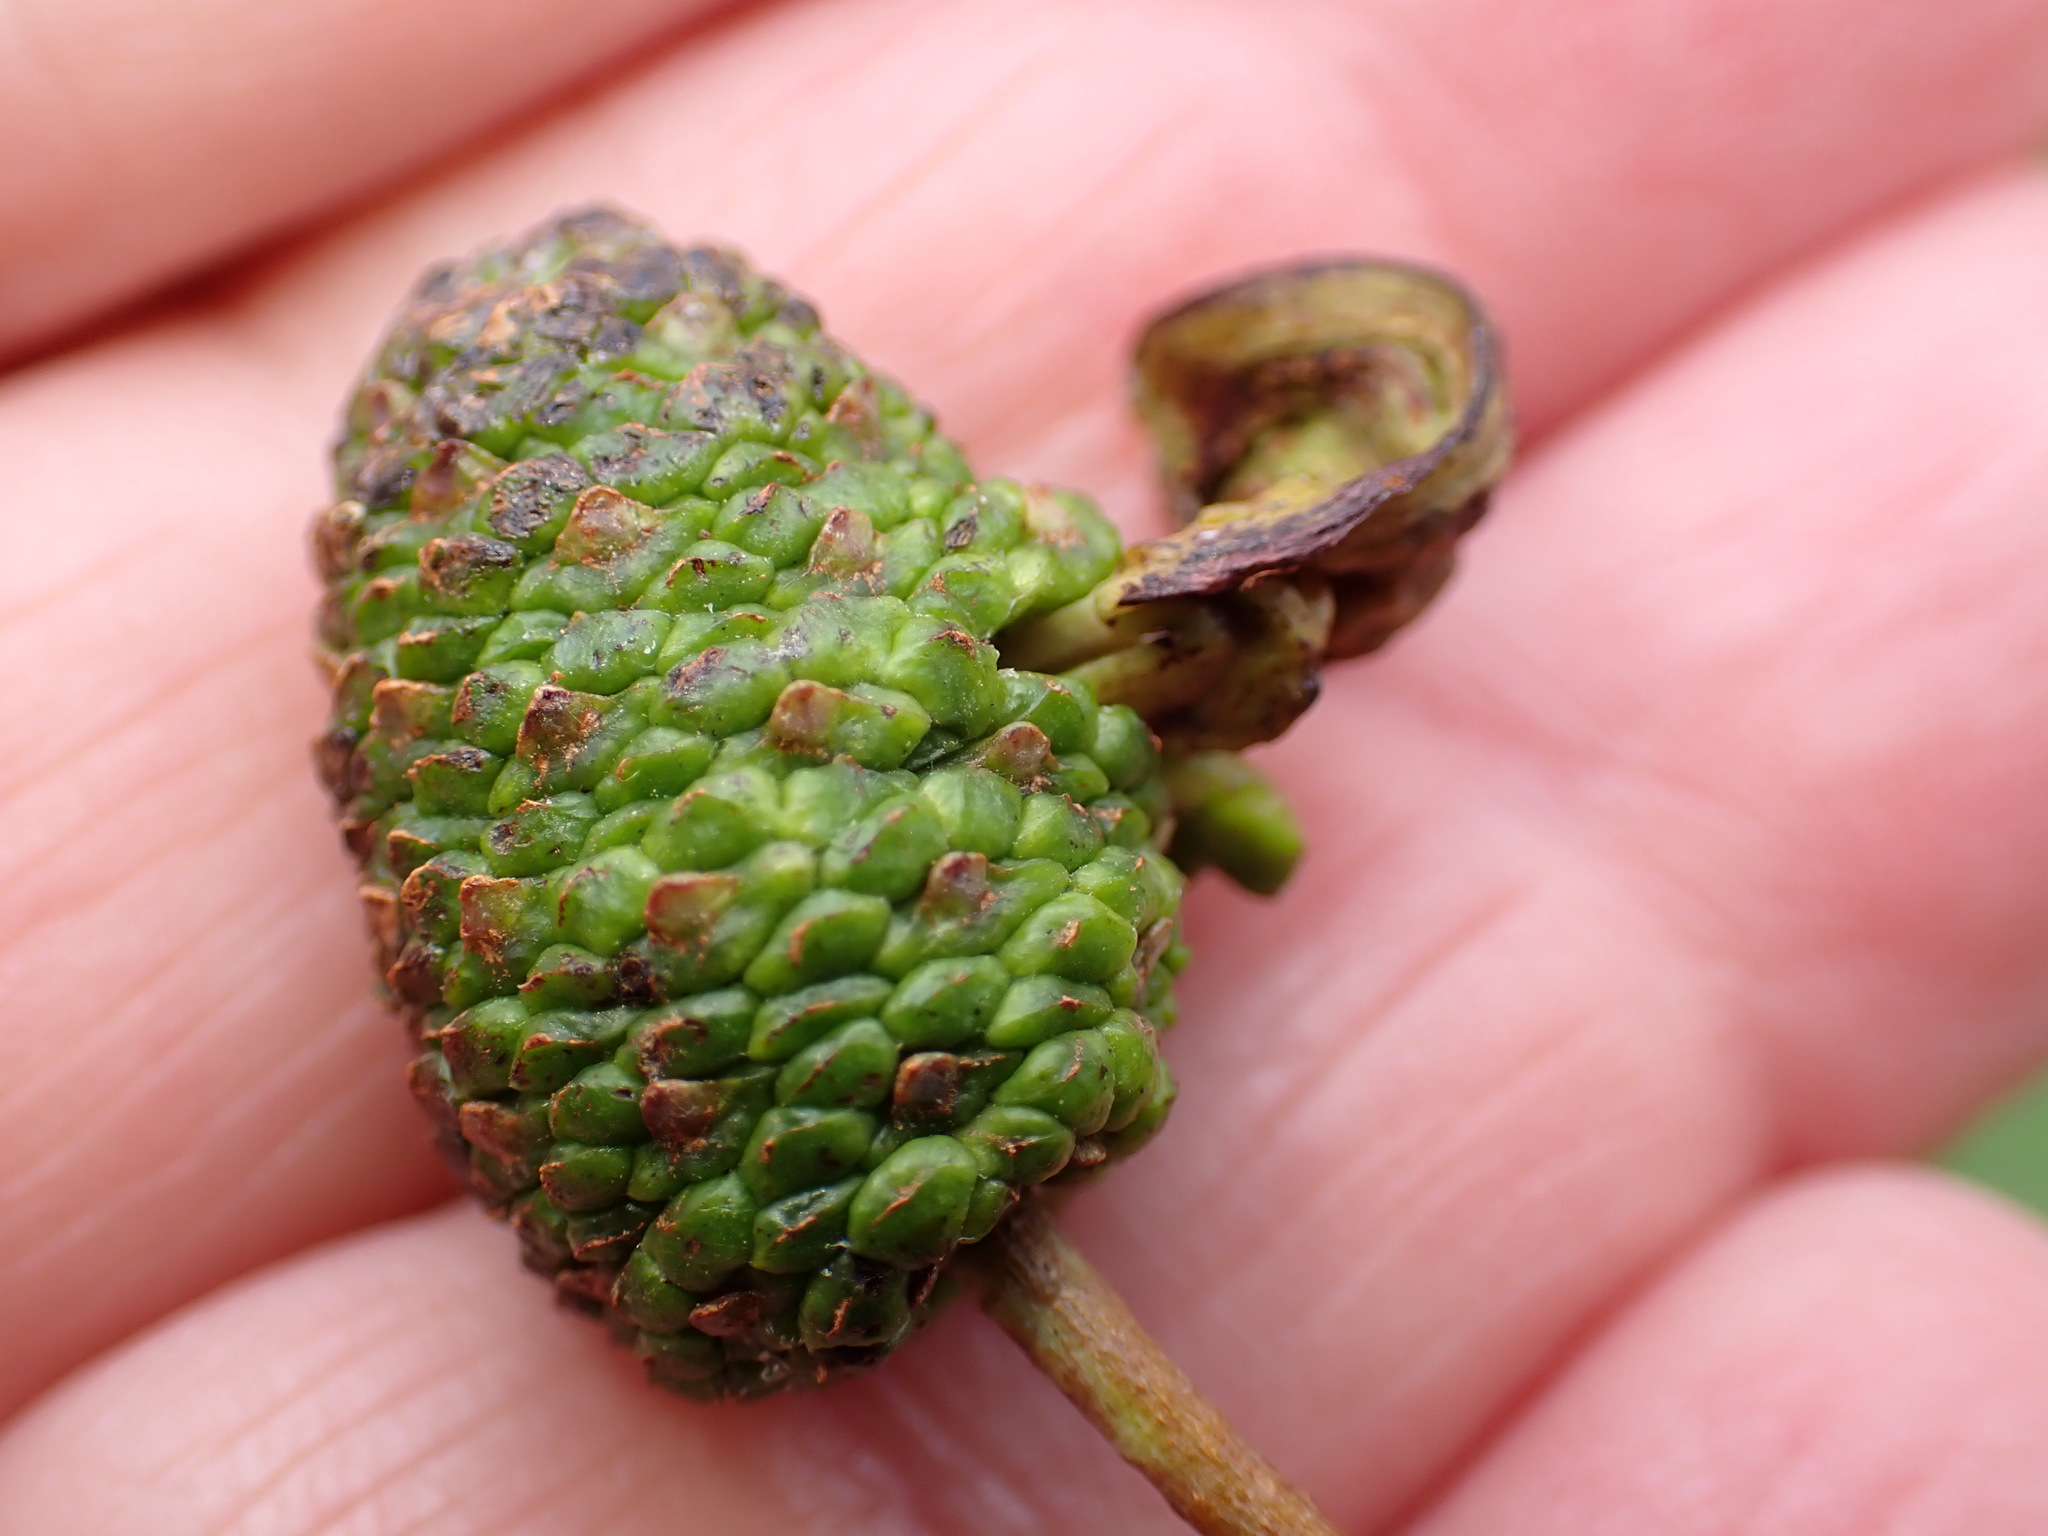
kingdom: Fungi
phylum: Ascomycota
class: Taphrinomycetes
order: Taphrinales
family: Taphrinaceae
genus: Taphrina
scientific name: Taphrina alni
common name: Alder tongue
